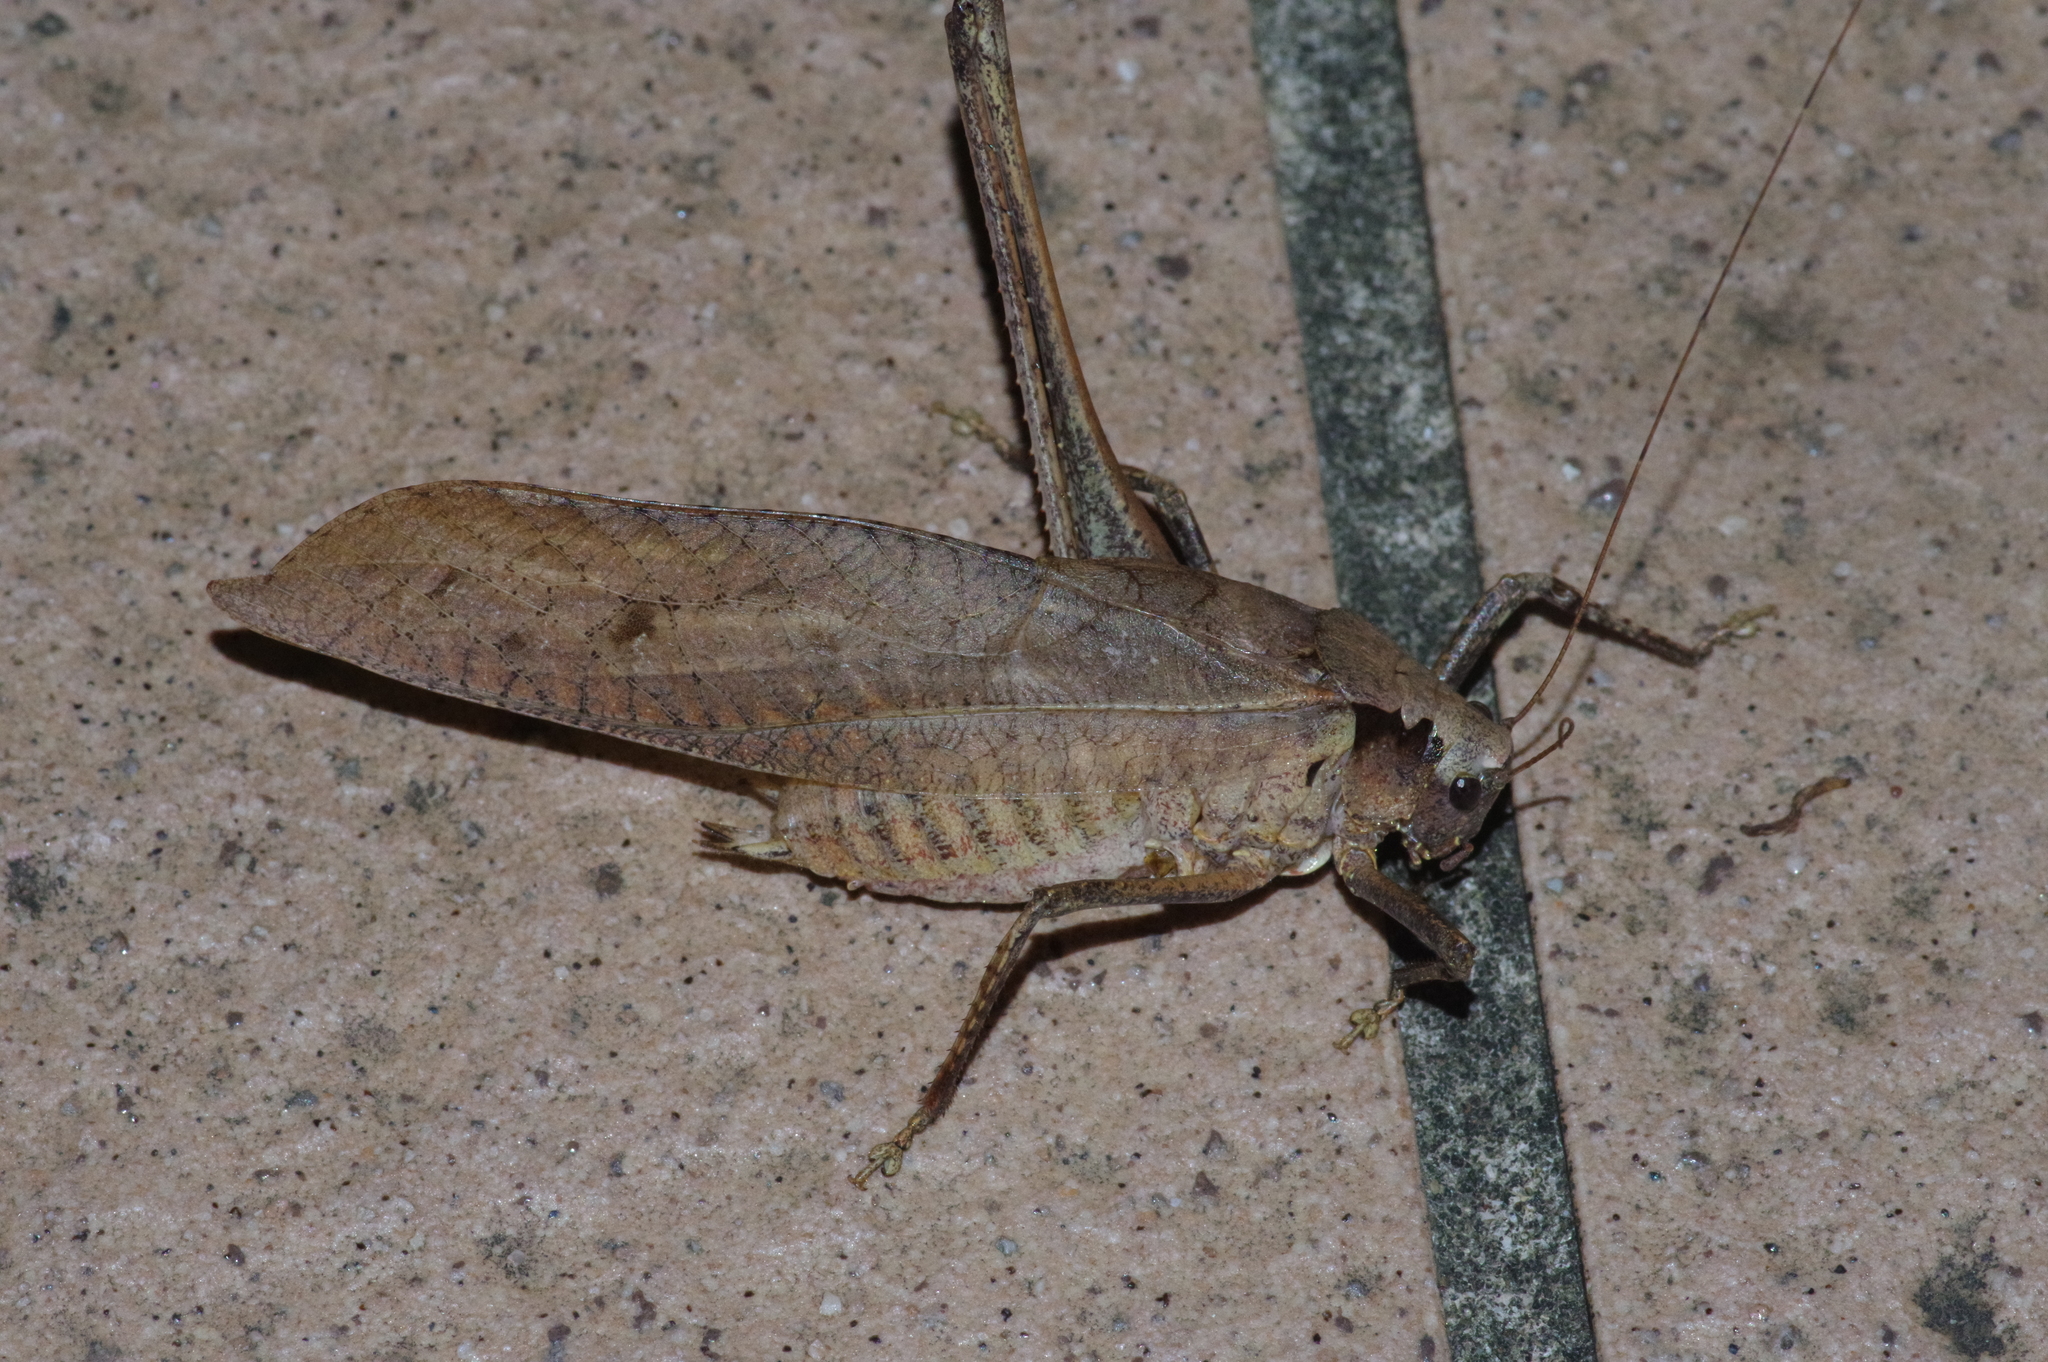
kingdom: Animalia
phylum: Arthropoda
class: Insecta
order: Orthoptera
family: Tettigoniidae
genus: Mecopoda
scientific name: Mecopoda elongata
